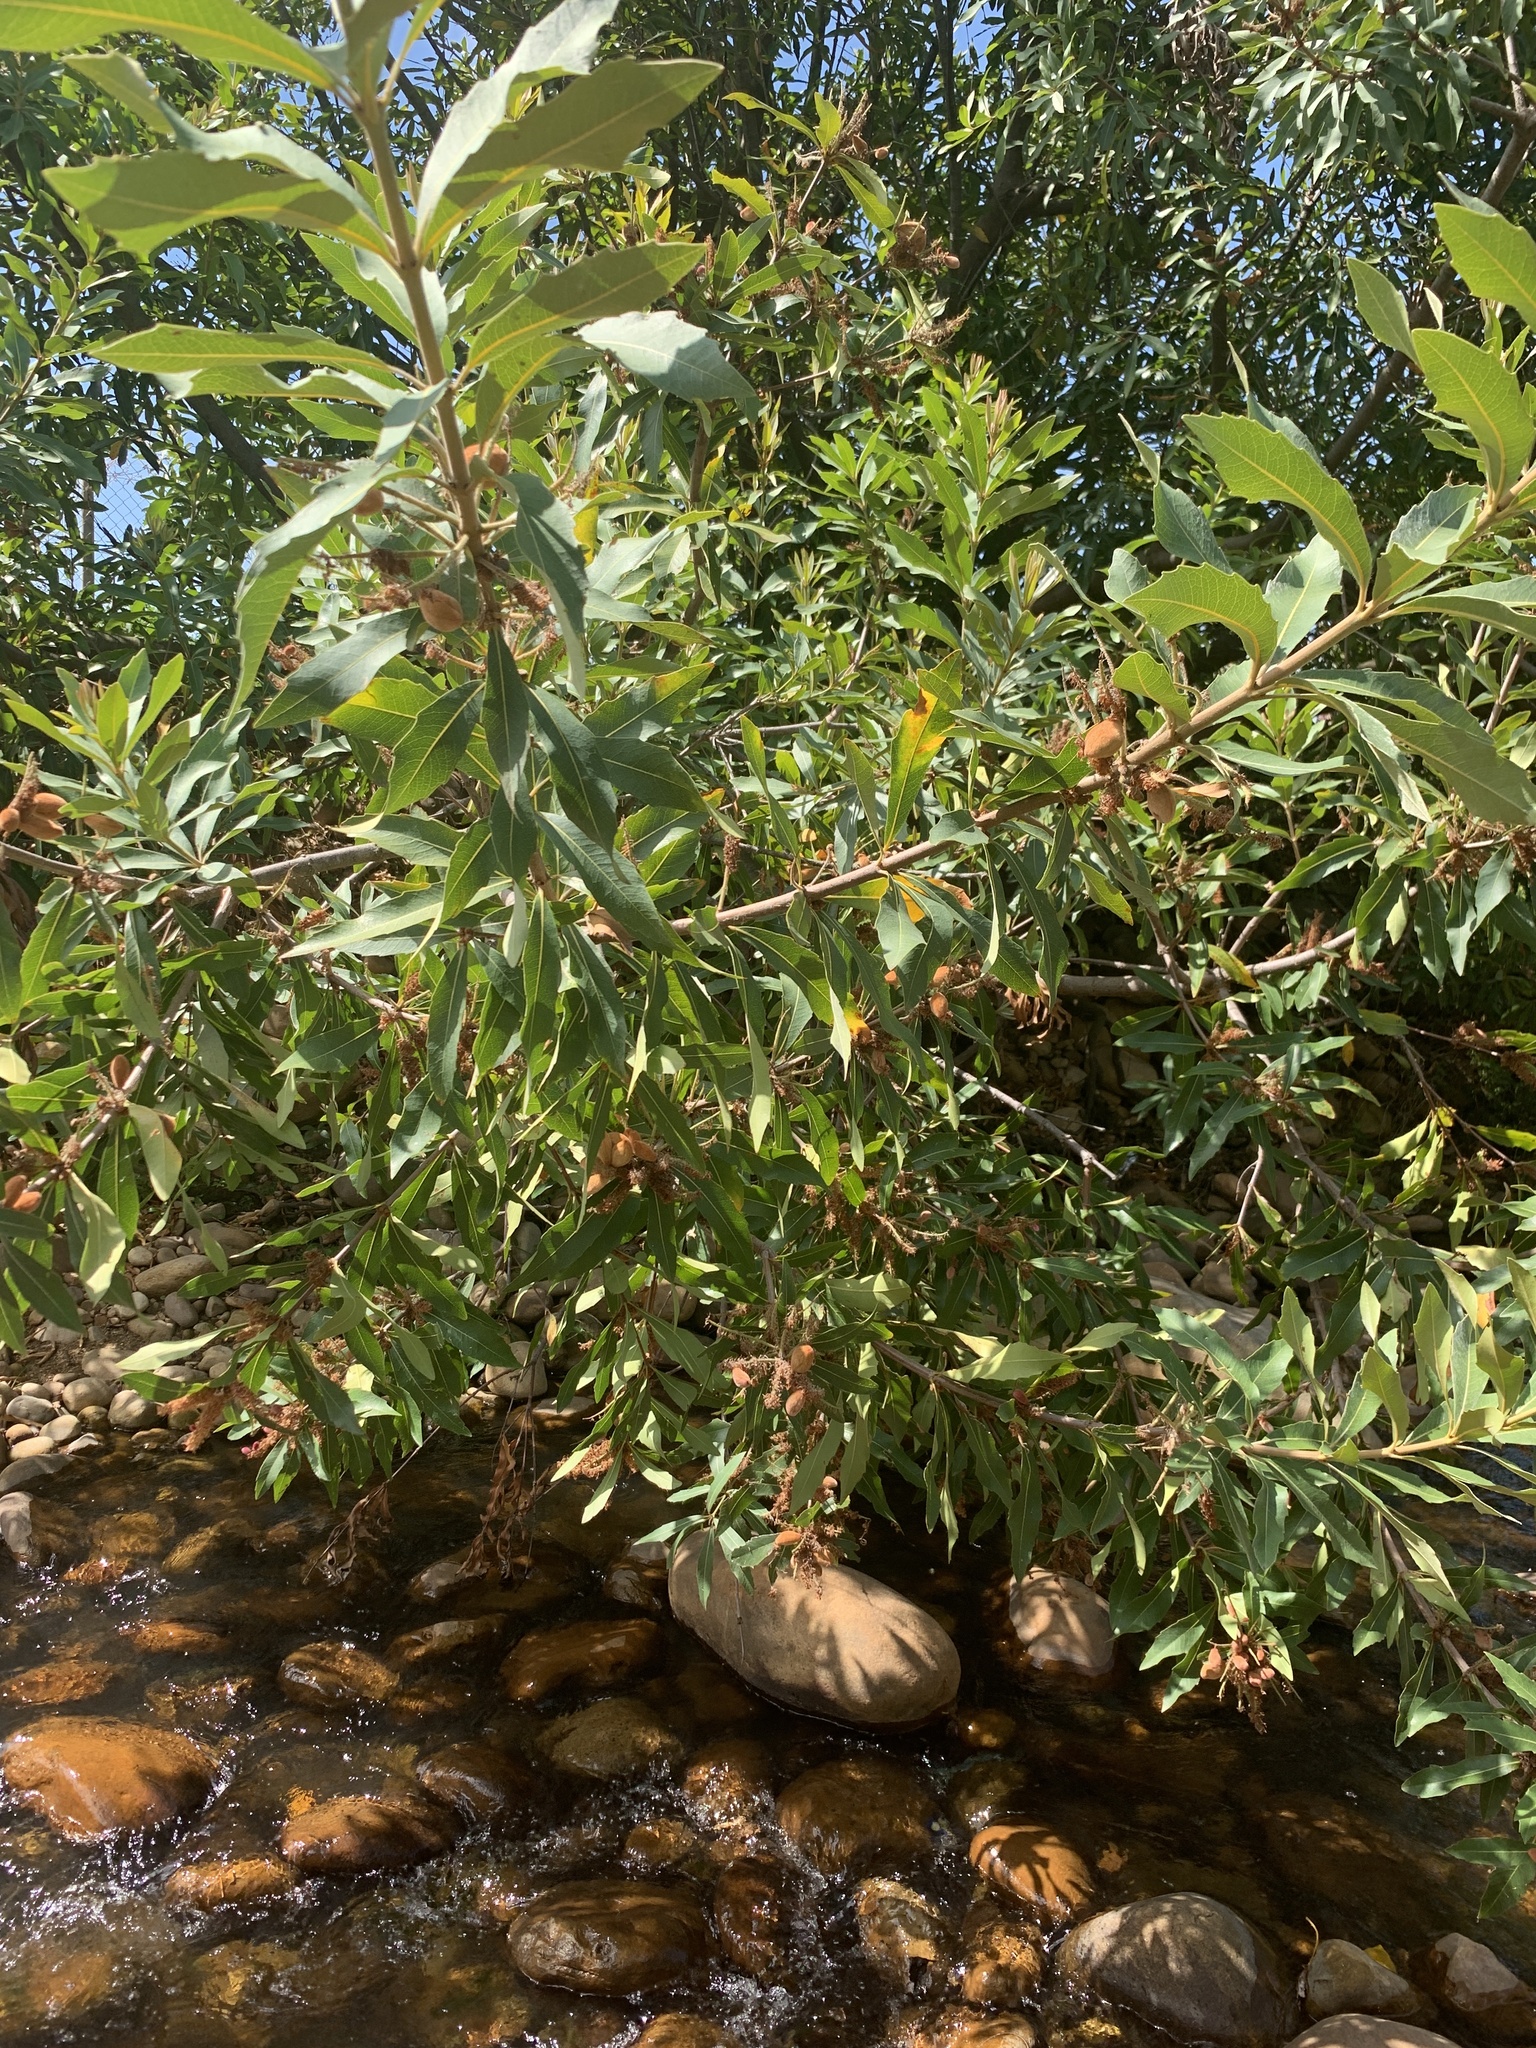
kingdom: Plantae
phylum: Tracheophyta
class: Magnoliopsida
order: Proteales
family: Proteaceae
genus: Brabejum
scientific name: Brabejum stellatifolium
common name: Wild almond
